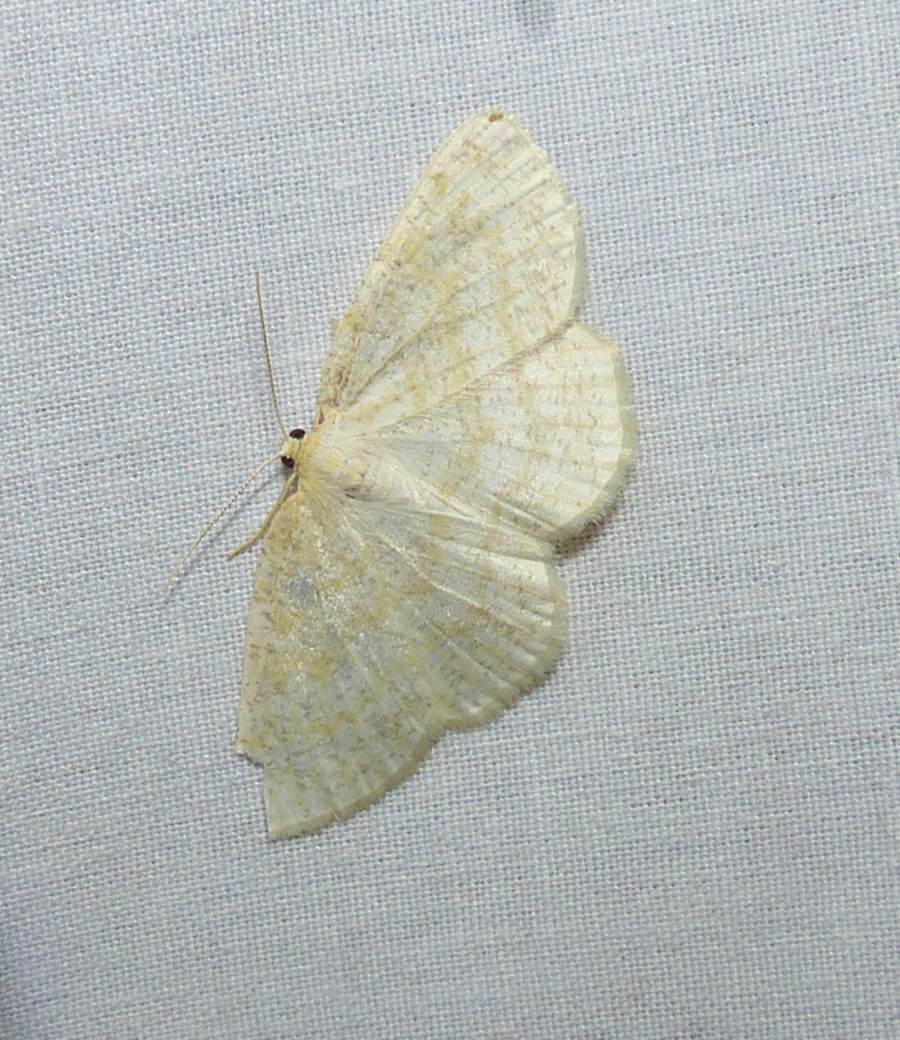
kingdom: Animalia
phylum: Arthropoda
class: Insecta
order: Lepidoptera
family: Geometridae
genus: Cabera
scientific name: Cabera erythemaria
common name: Yellow-dusted cream moth
